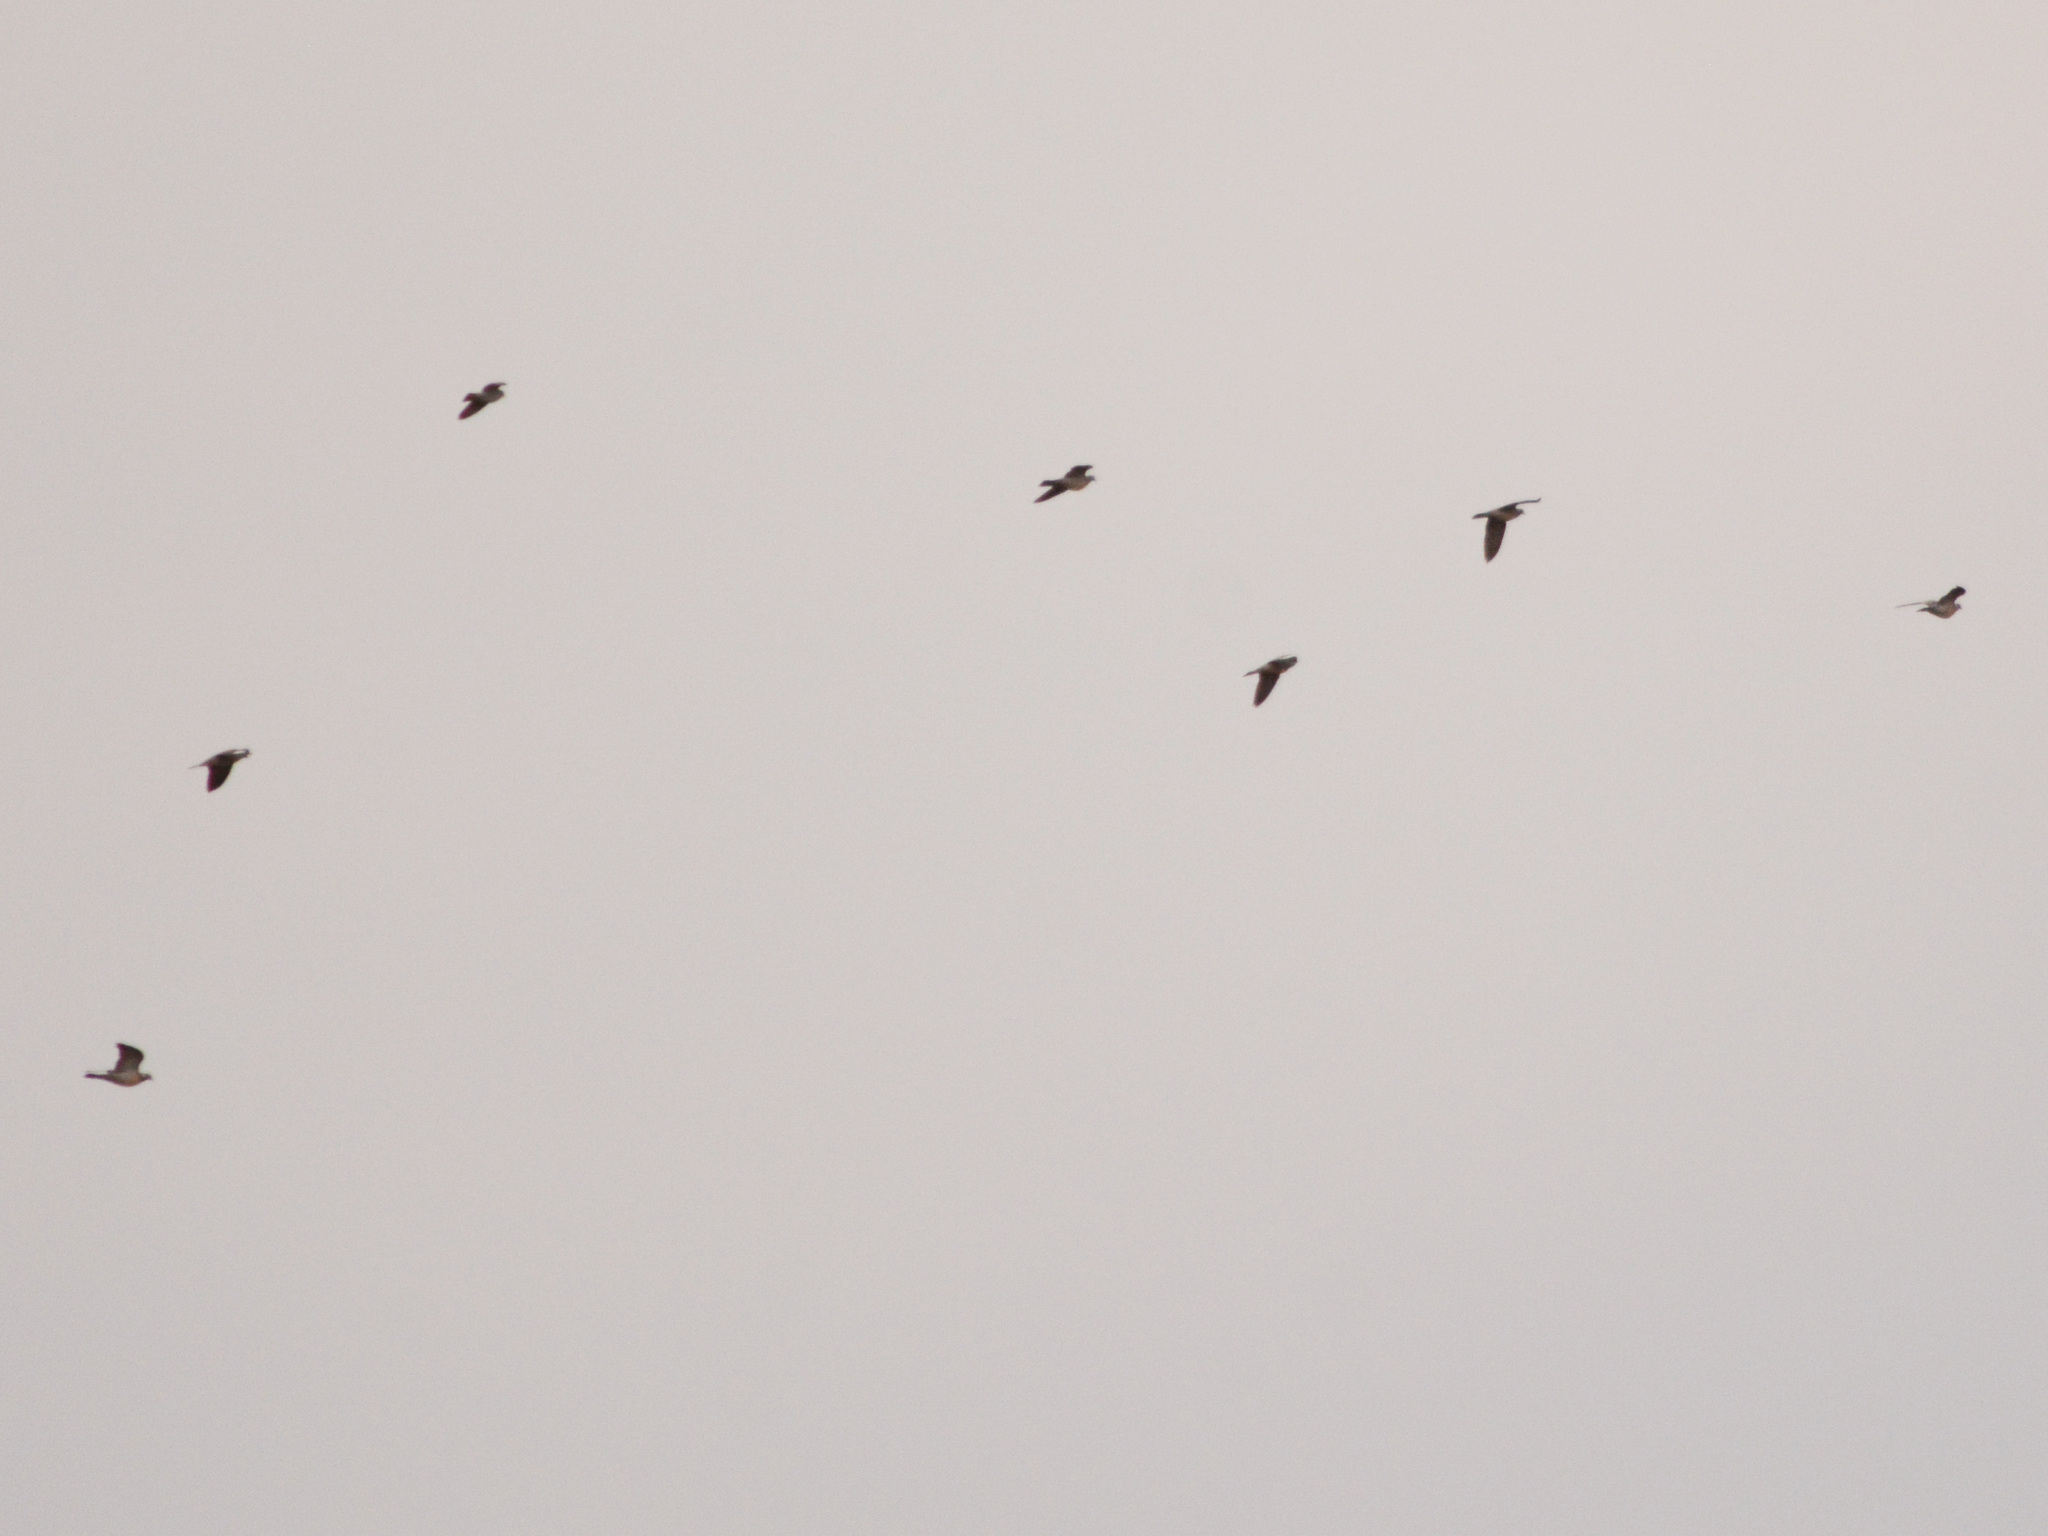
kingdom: Animalia
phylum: Chordata
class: Aves
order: Columbiformes
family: Columbidae
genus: Columba
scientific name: Columba palumbus
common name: Common wood pigeon
